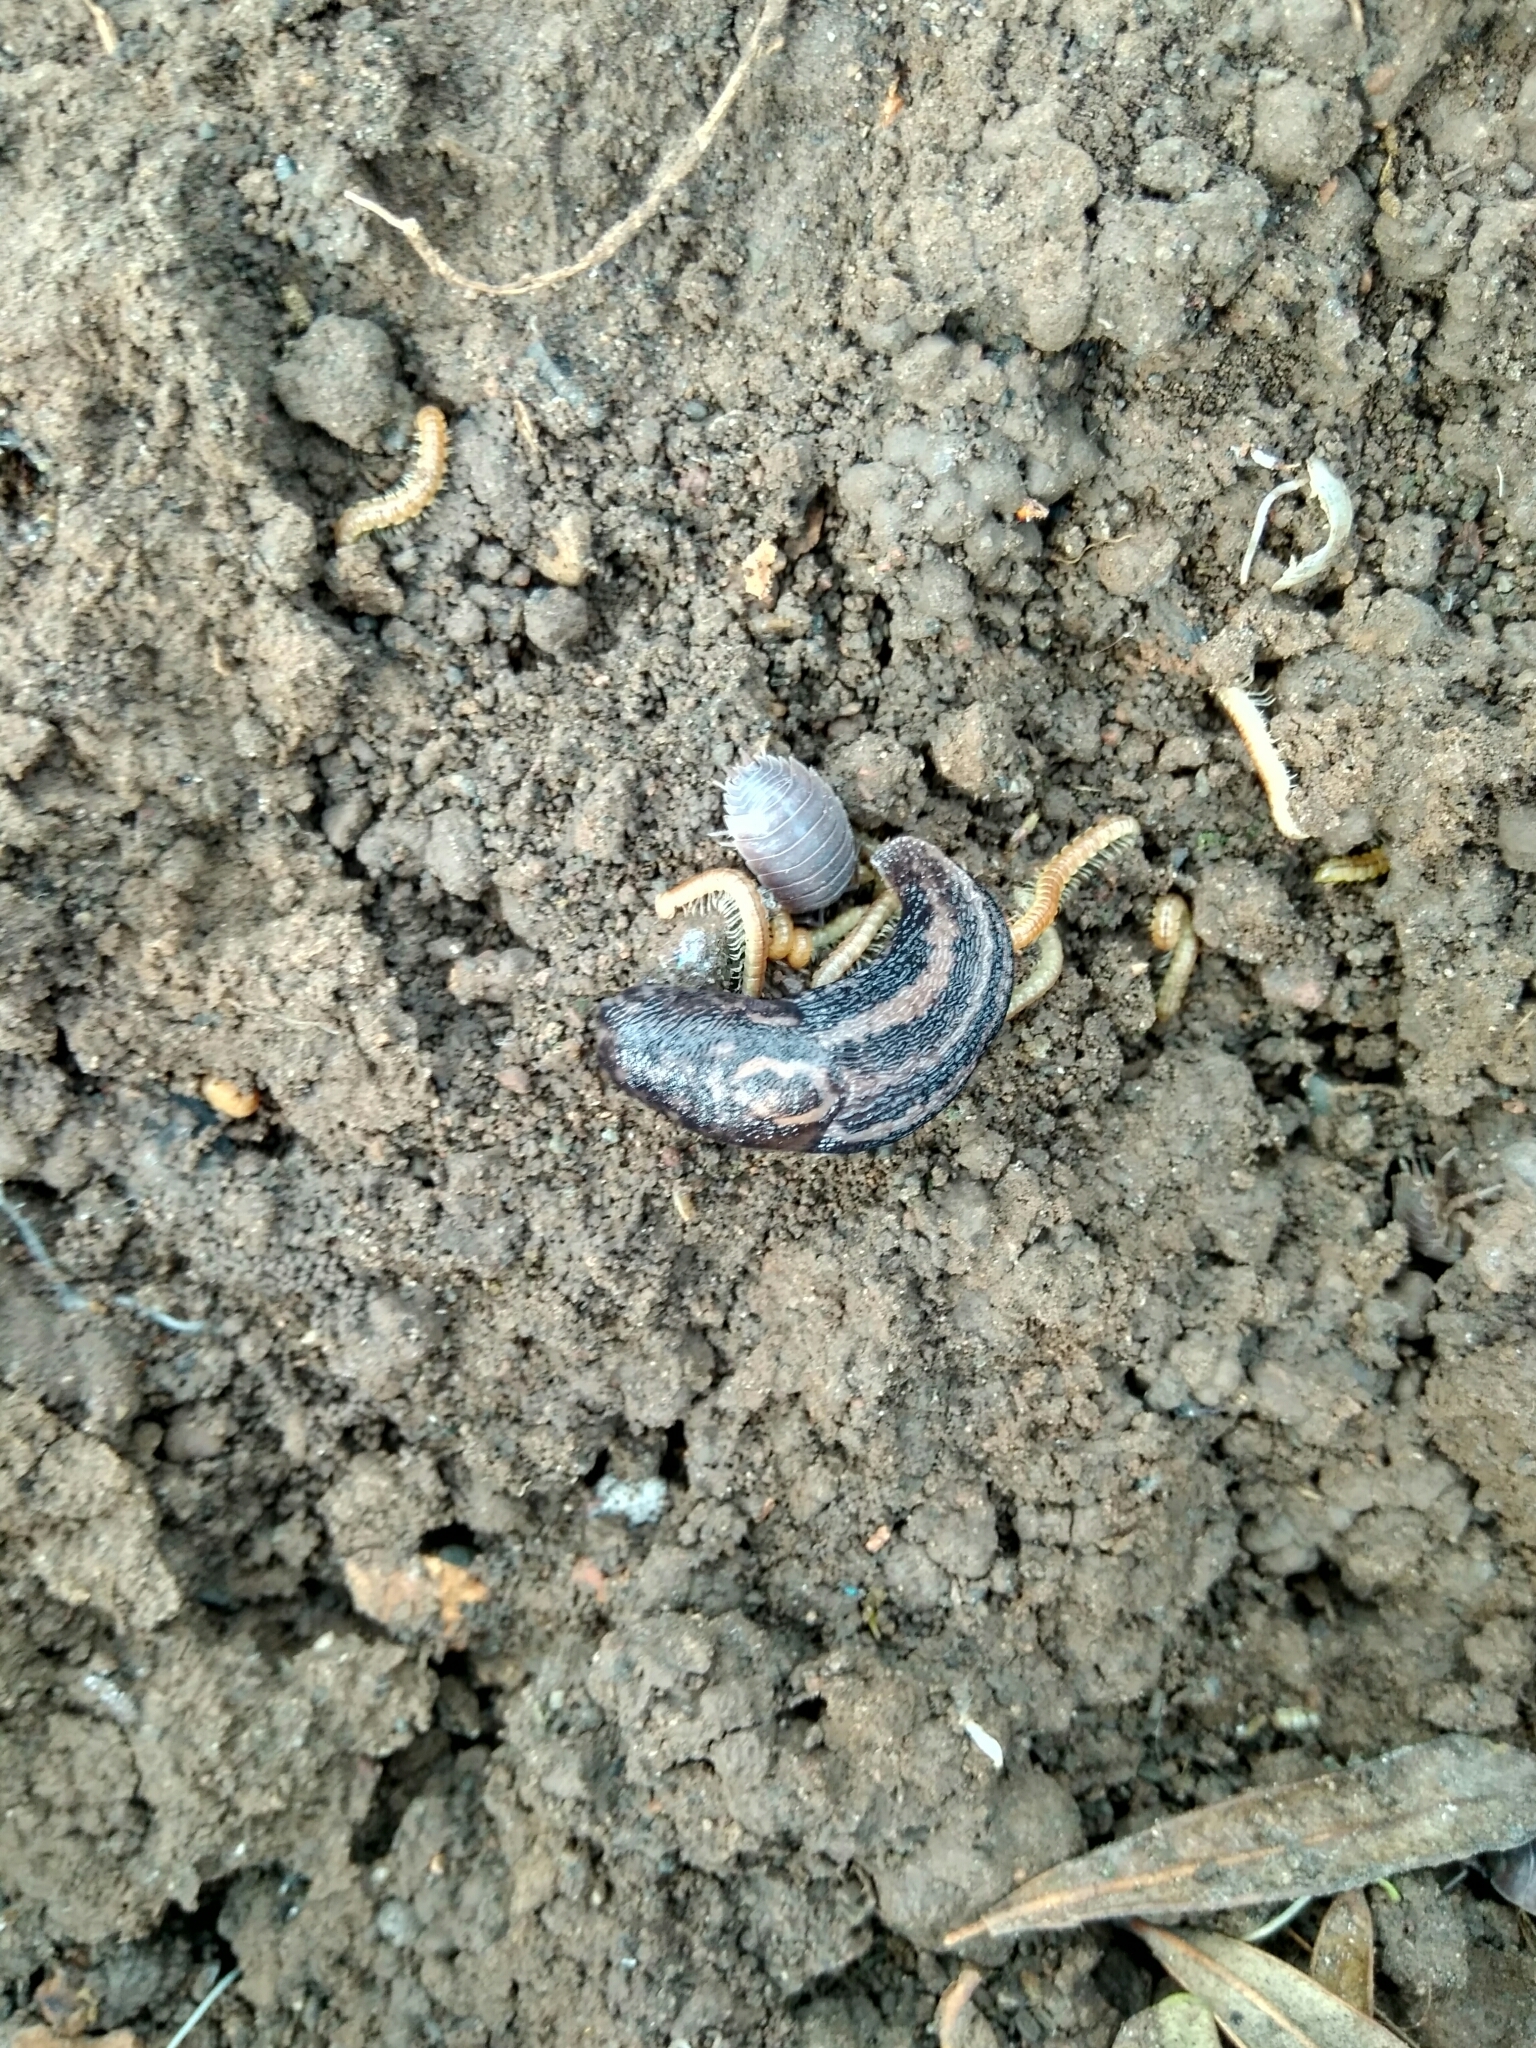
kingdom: Animalia
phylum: Mollusca
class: Gastropoda
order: Stylommatophora
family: Limacidae
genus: Limax
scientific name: Limax maximus
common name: Great grey slug
